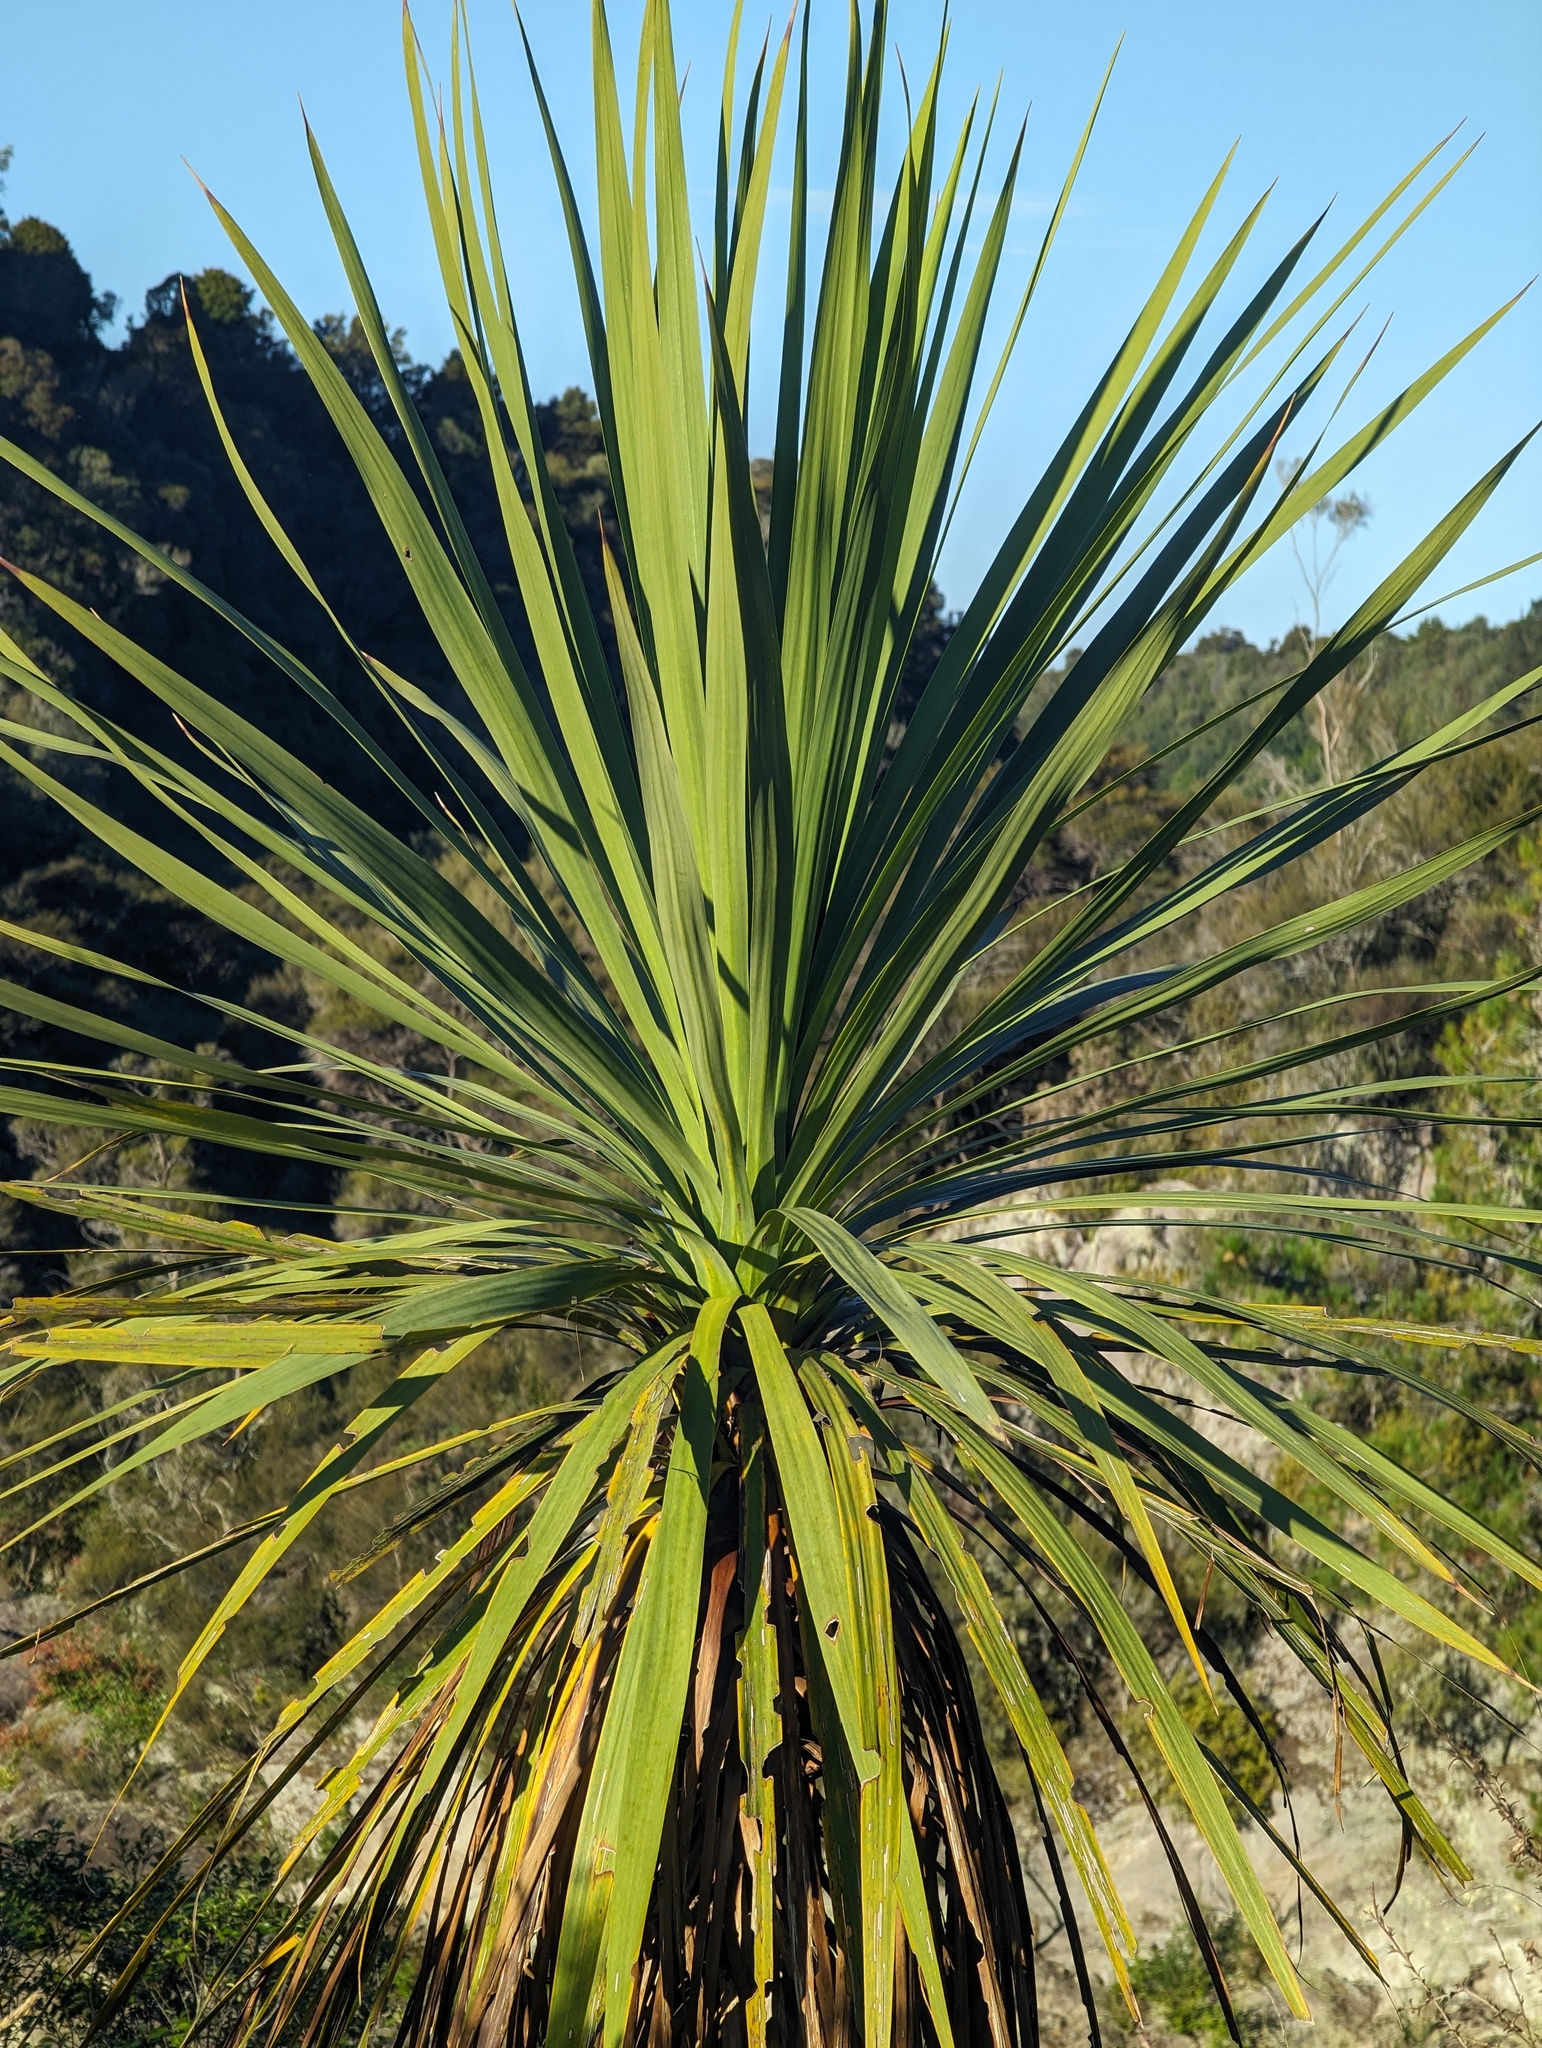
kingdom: Plantae
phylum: Tracheophyta
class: Liliopsida
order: Asparagales
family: Asparagaceae
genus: Cordyline
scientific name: Cordyline australis
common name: Cabbage-palm
